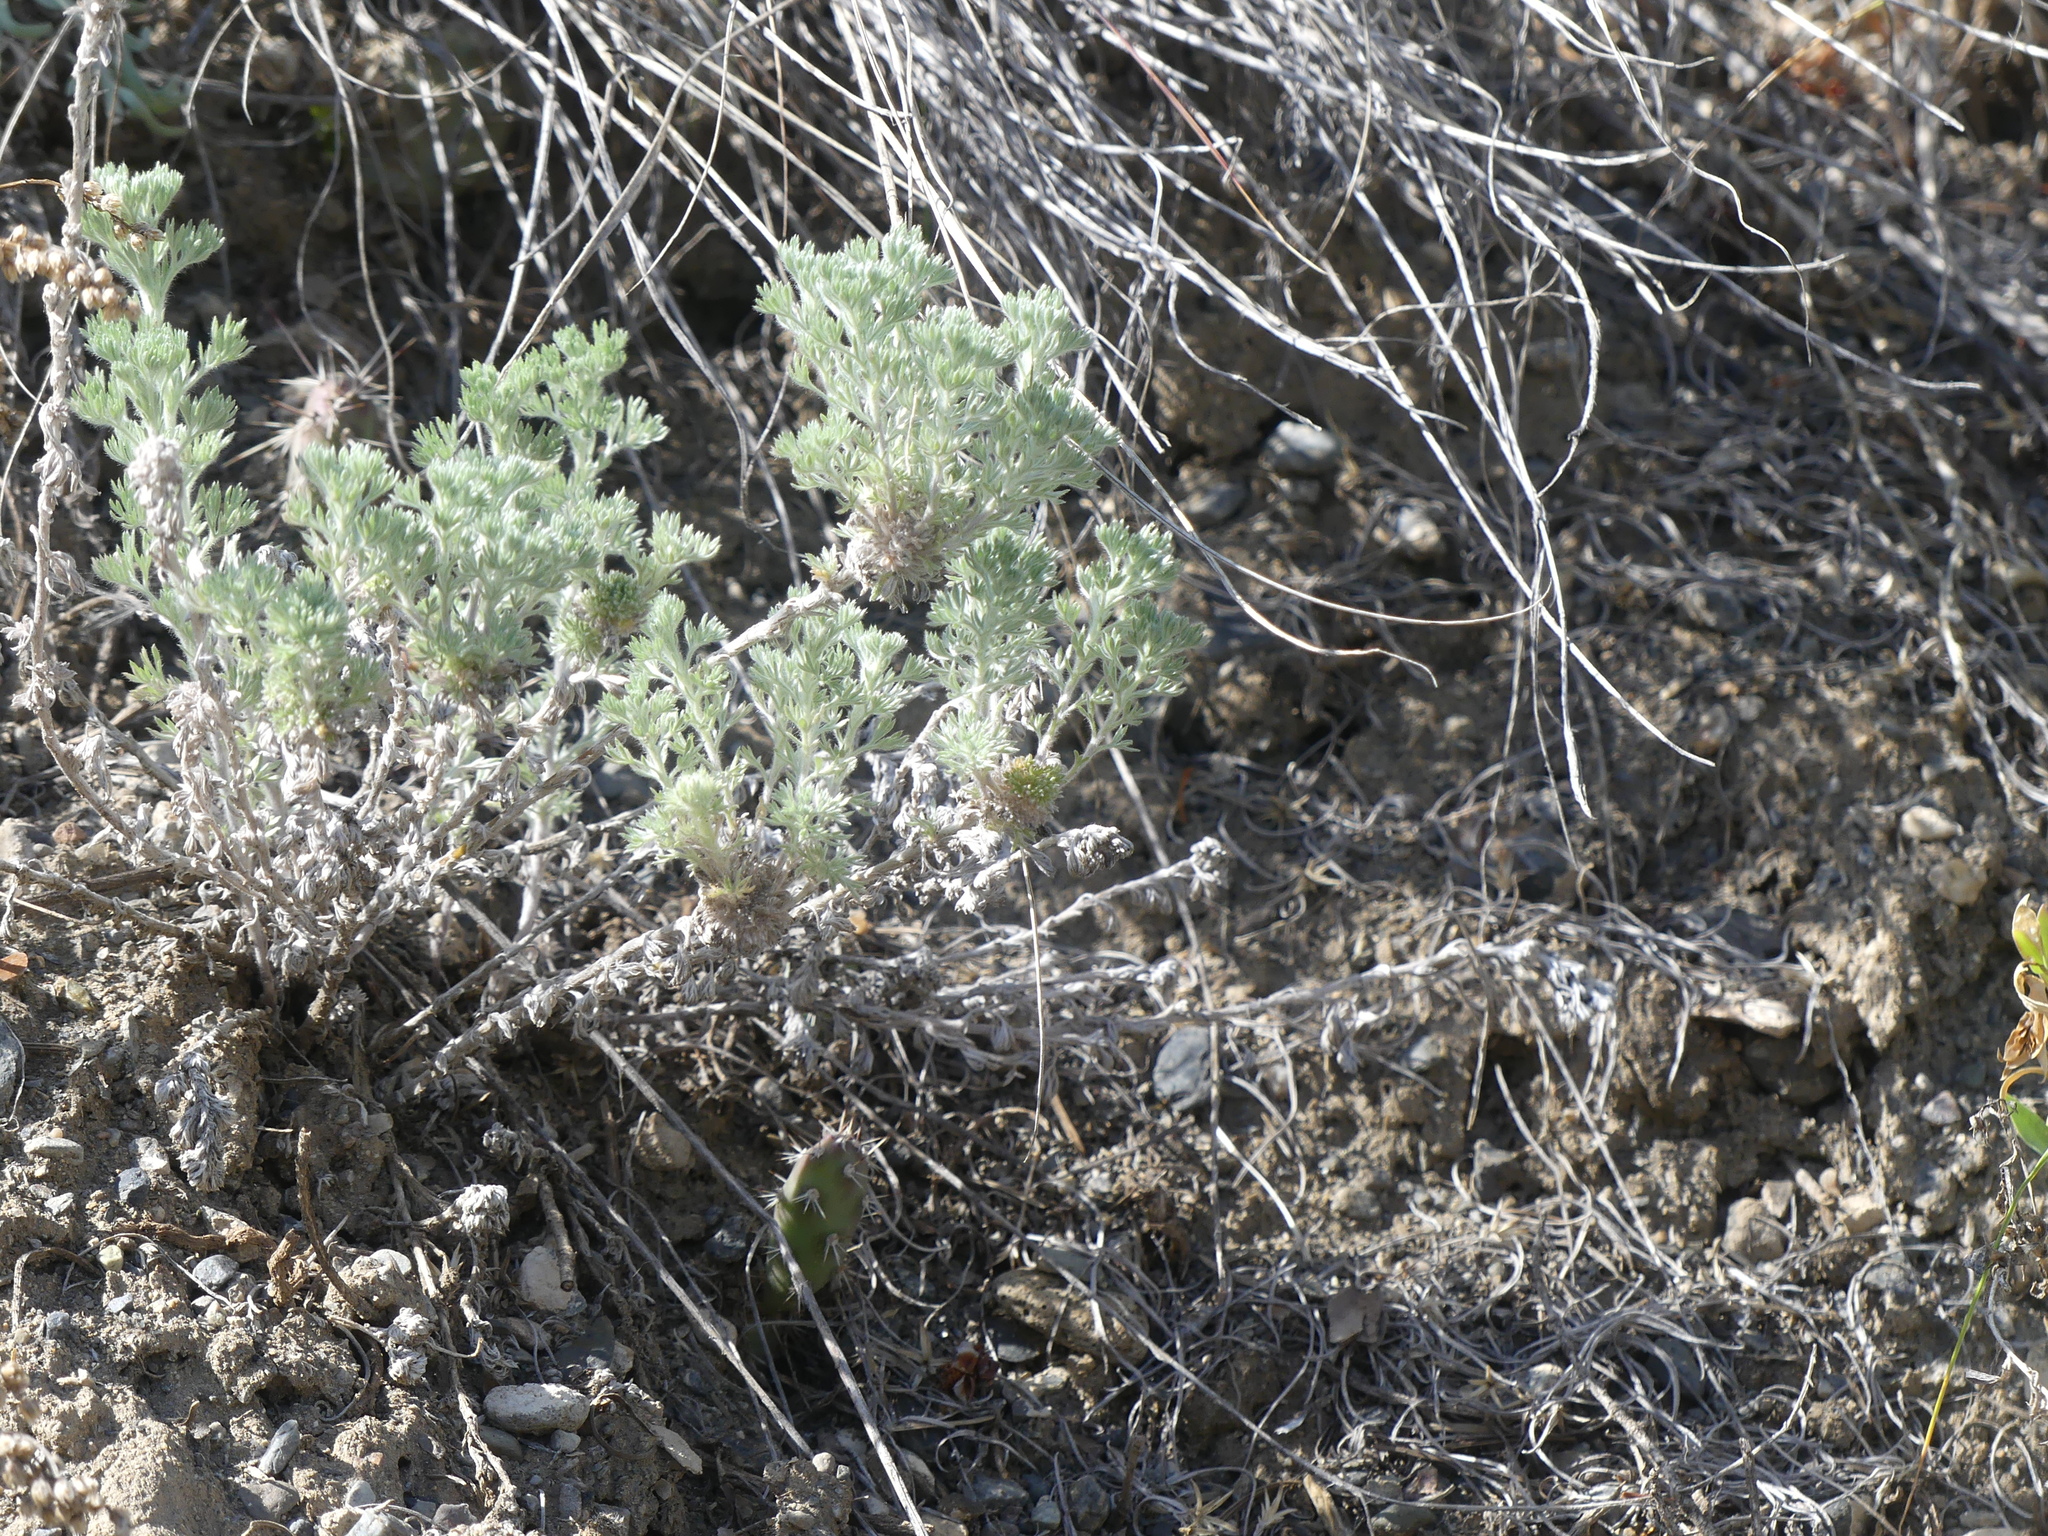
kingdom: Plantae
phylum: Tracheophyta
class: Magnoliopsida
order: Asterales
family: Asteraceae
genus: Artemisia
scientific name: Artemisia frigida
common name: Prairie sagewort
